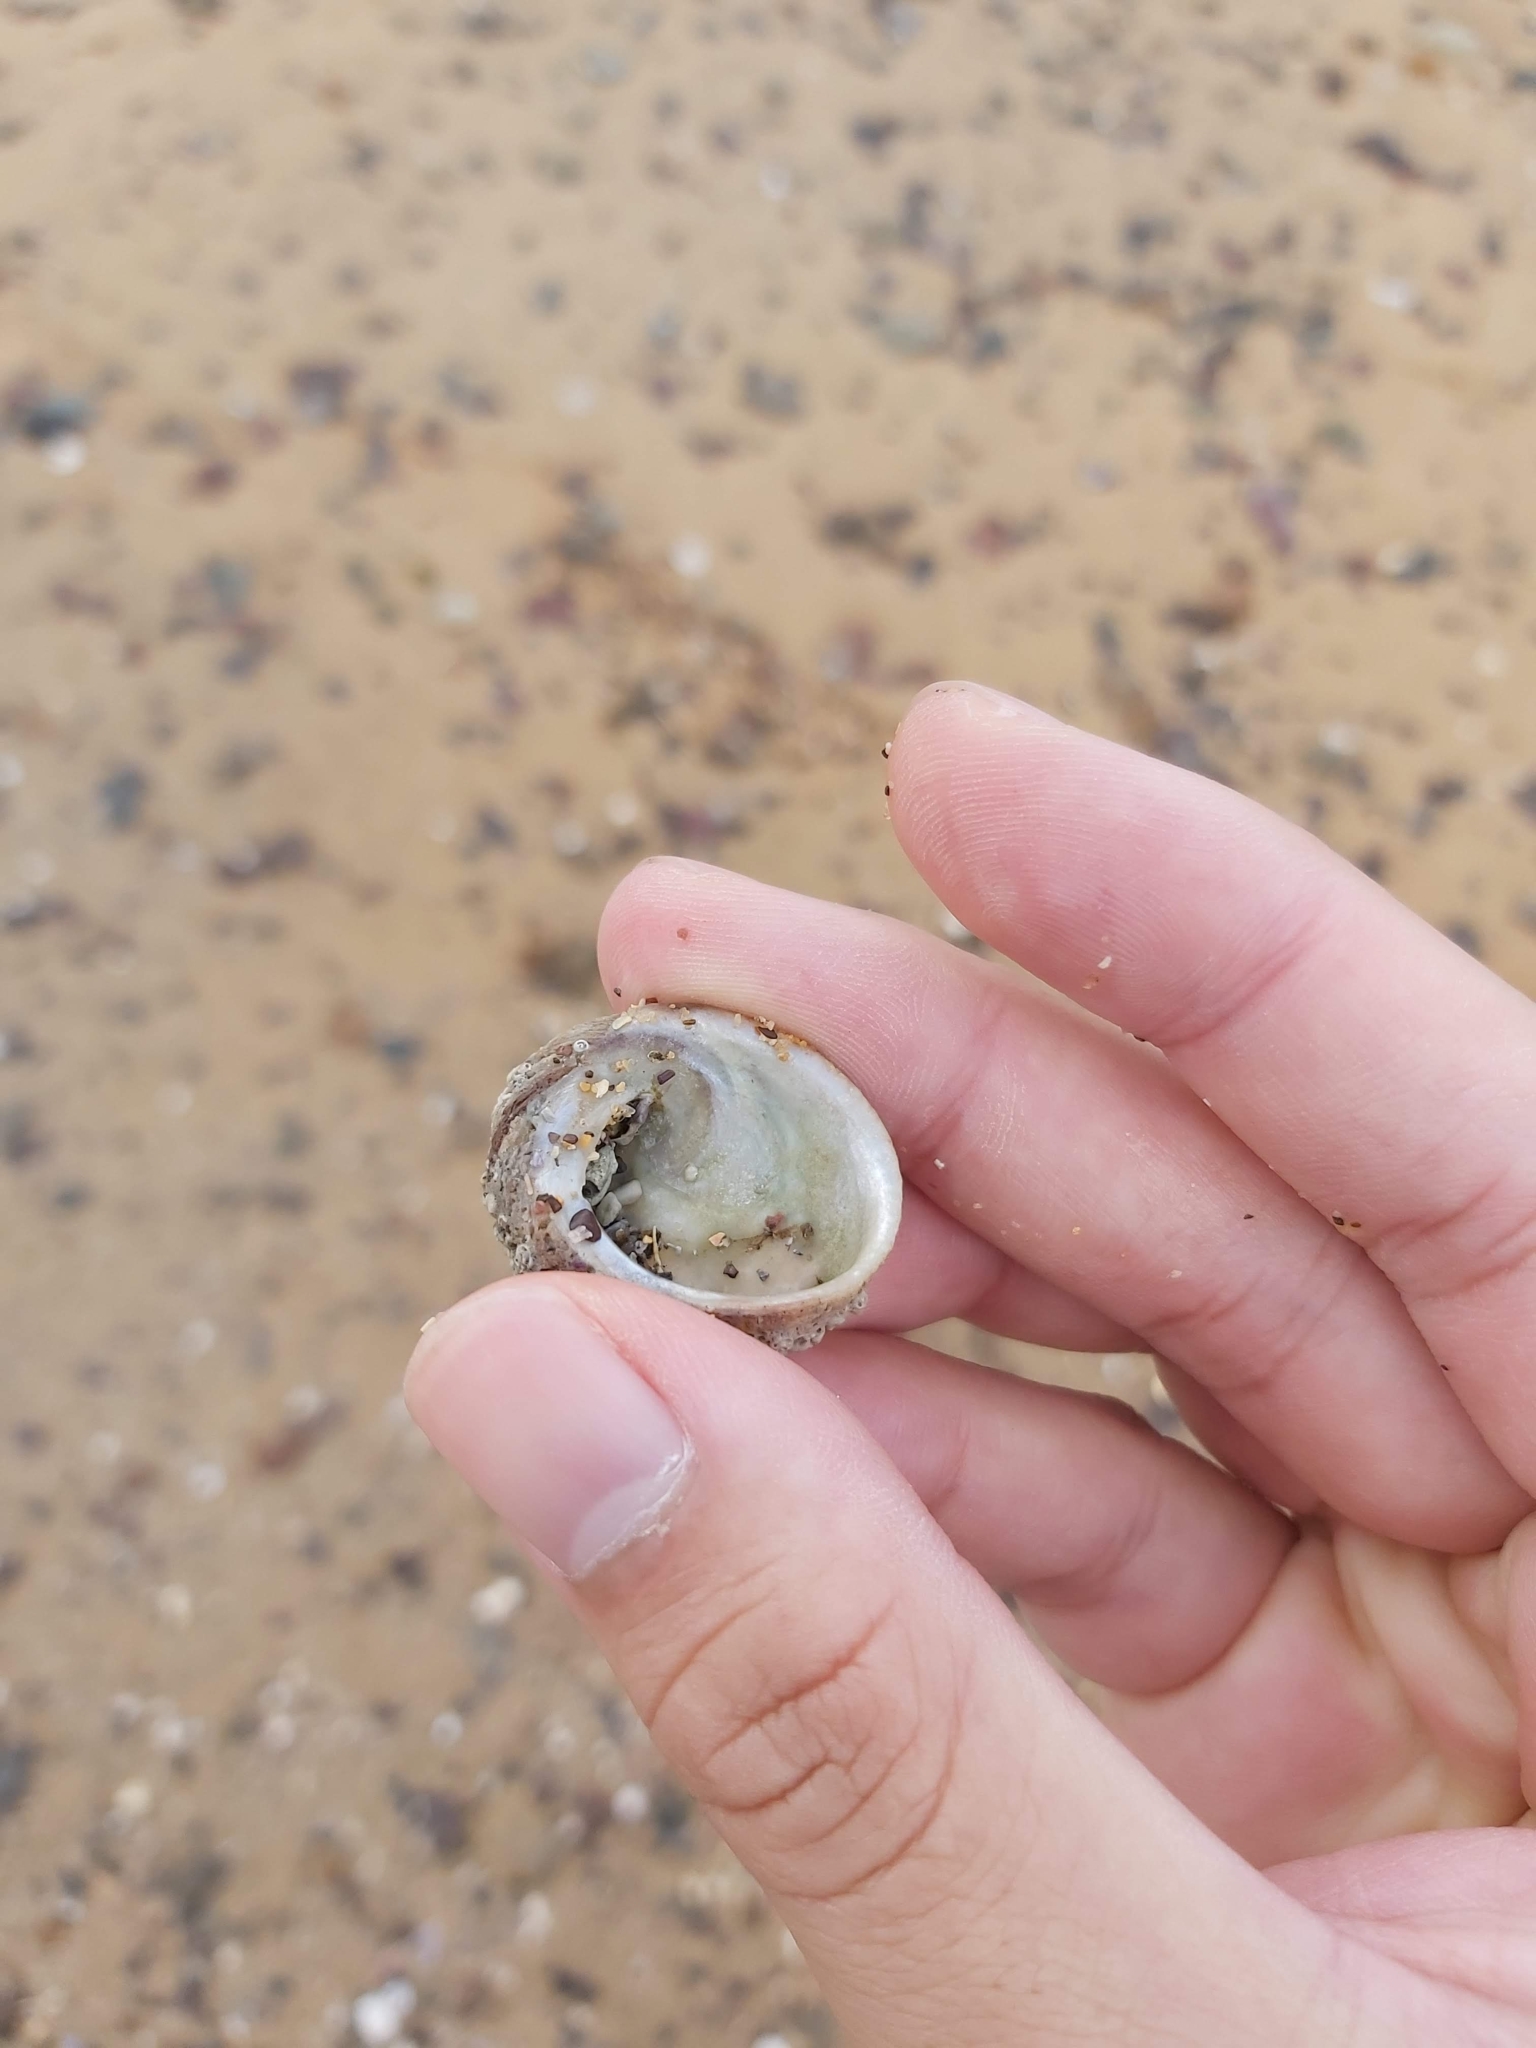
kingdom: Animalia
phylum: Mollusca
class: Gastropoda
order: Seguenziida
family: Chilodontaidae
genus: Granata
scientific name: Granata imbricata
